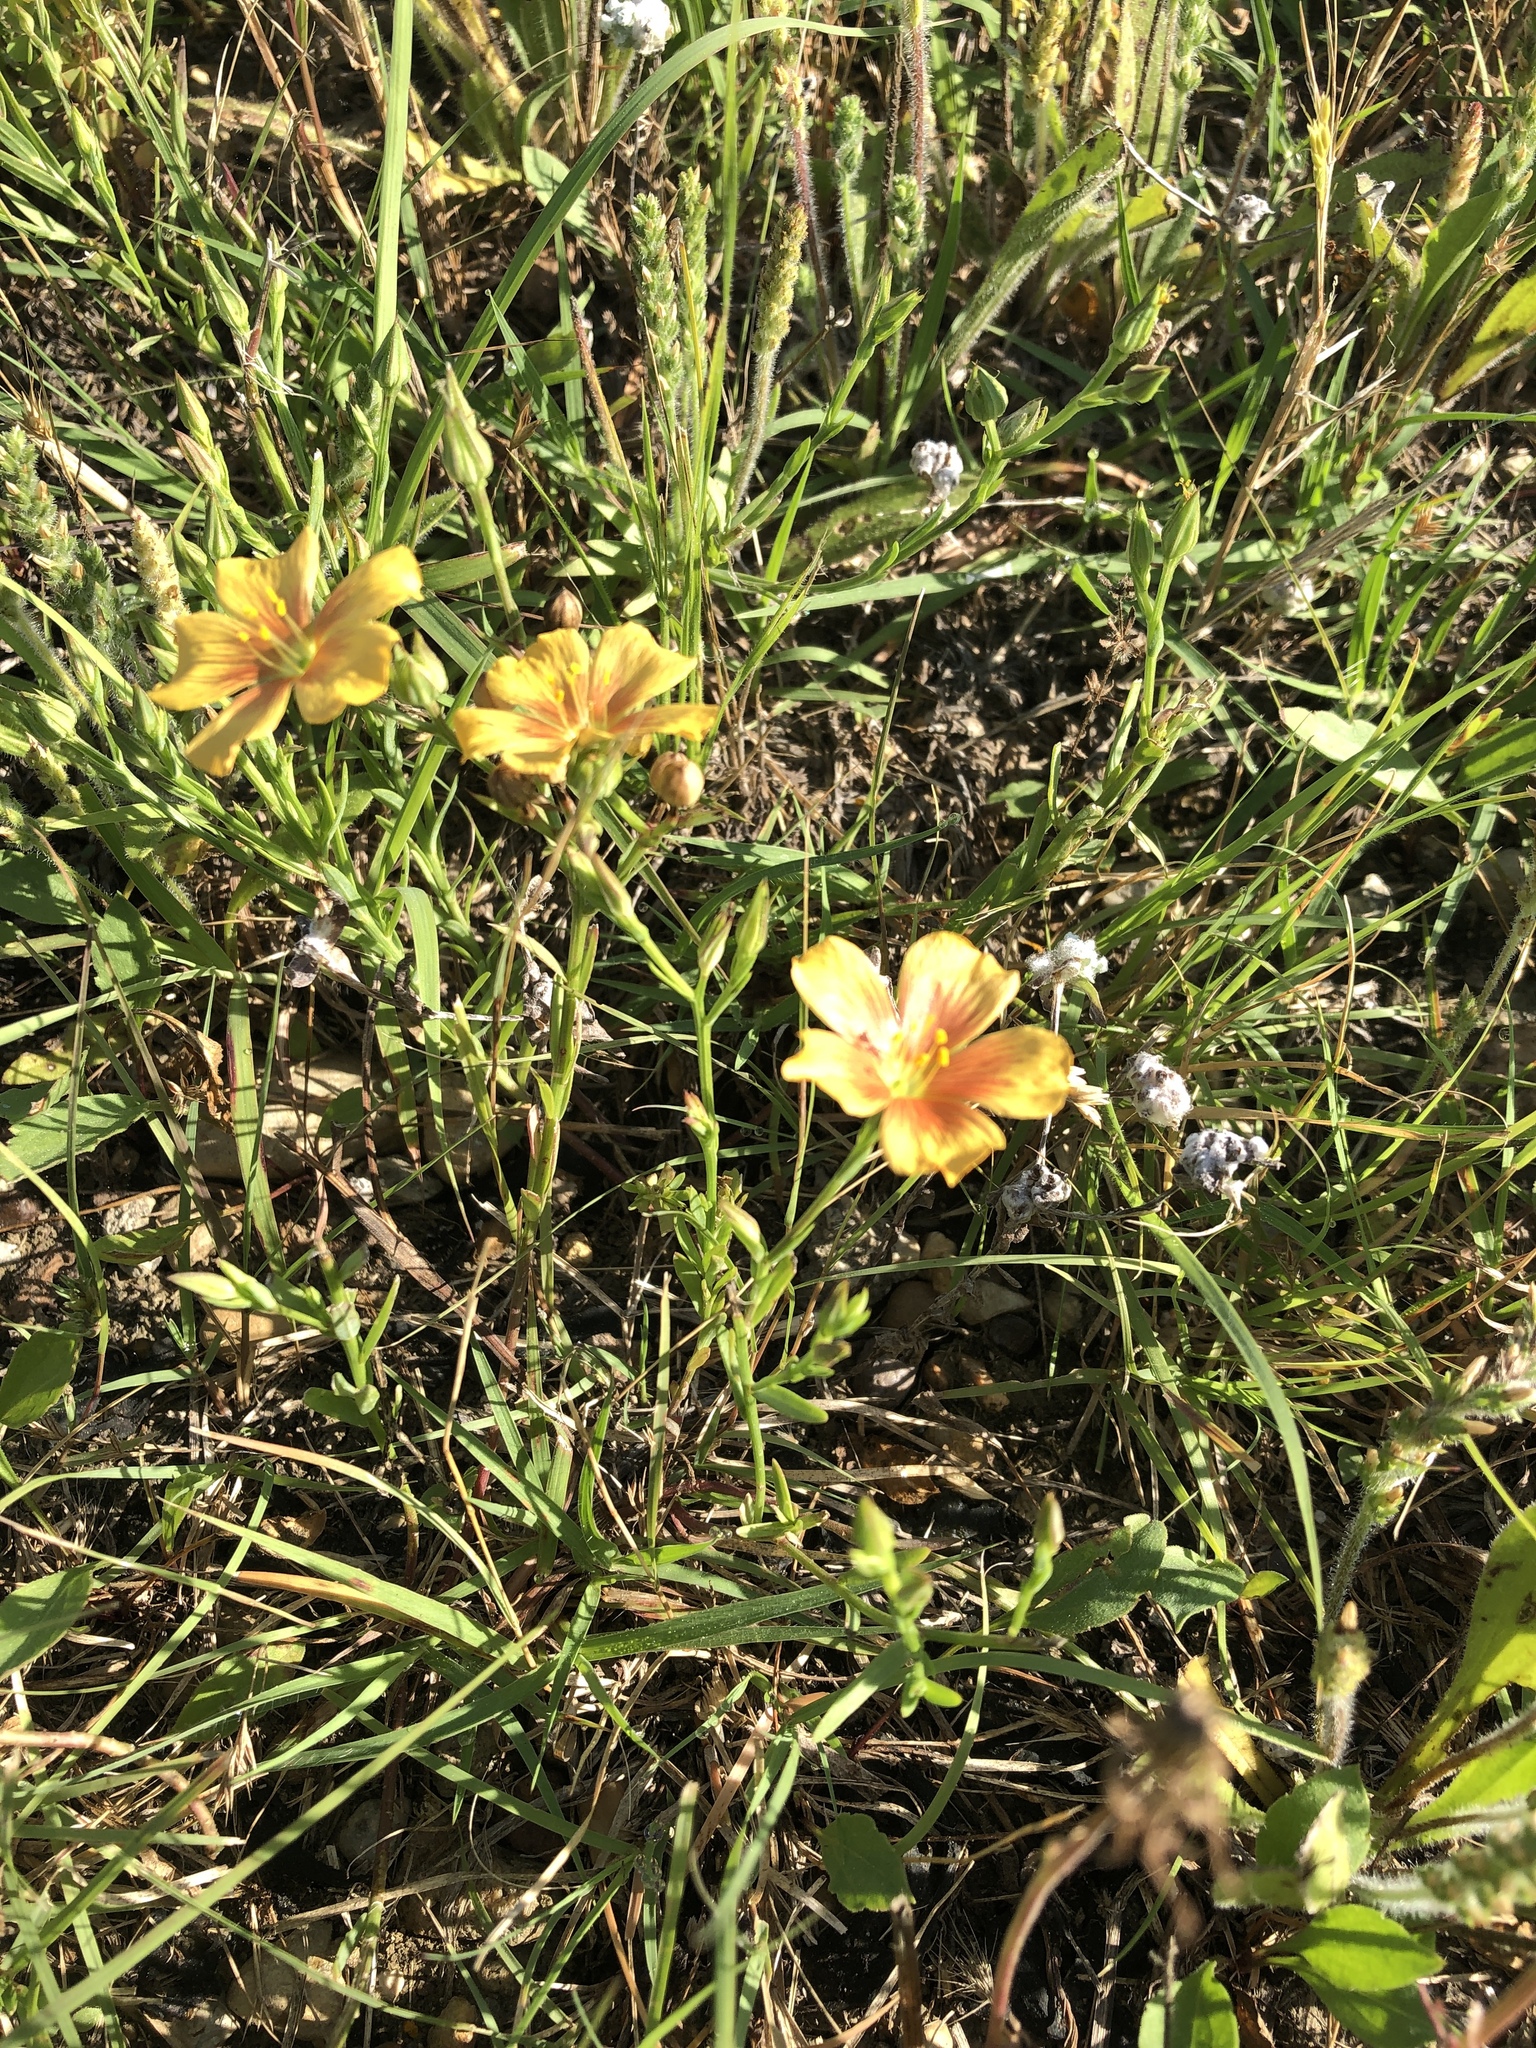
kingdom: Plantae
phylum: Tracheophyta
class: Magnoliopsida
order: Malpighiales
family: Linaceae
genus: Linum
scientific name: Linum rigidum
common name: Stiff-stem flax
